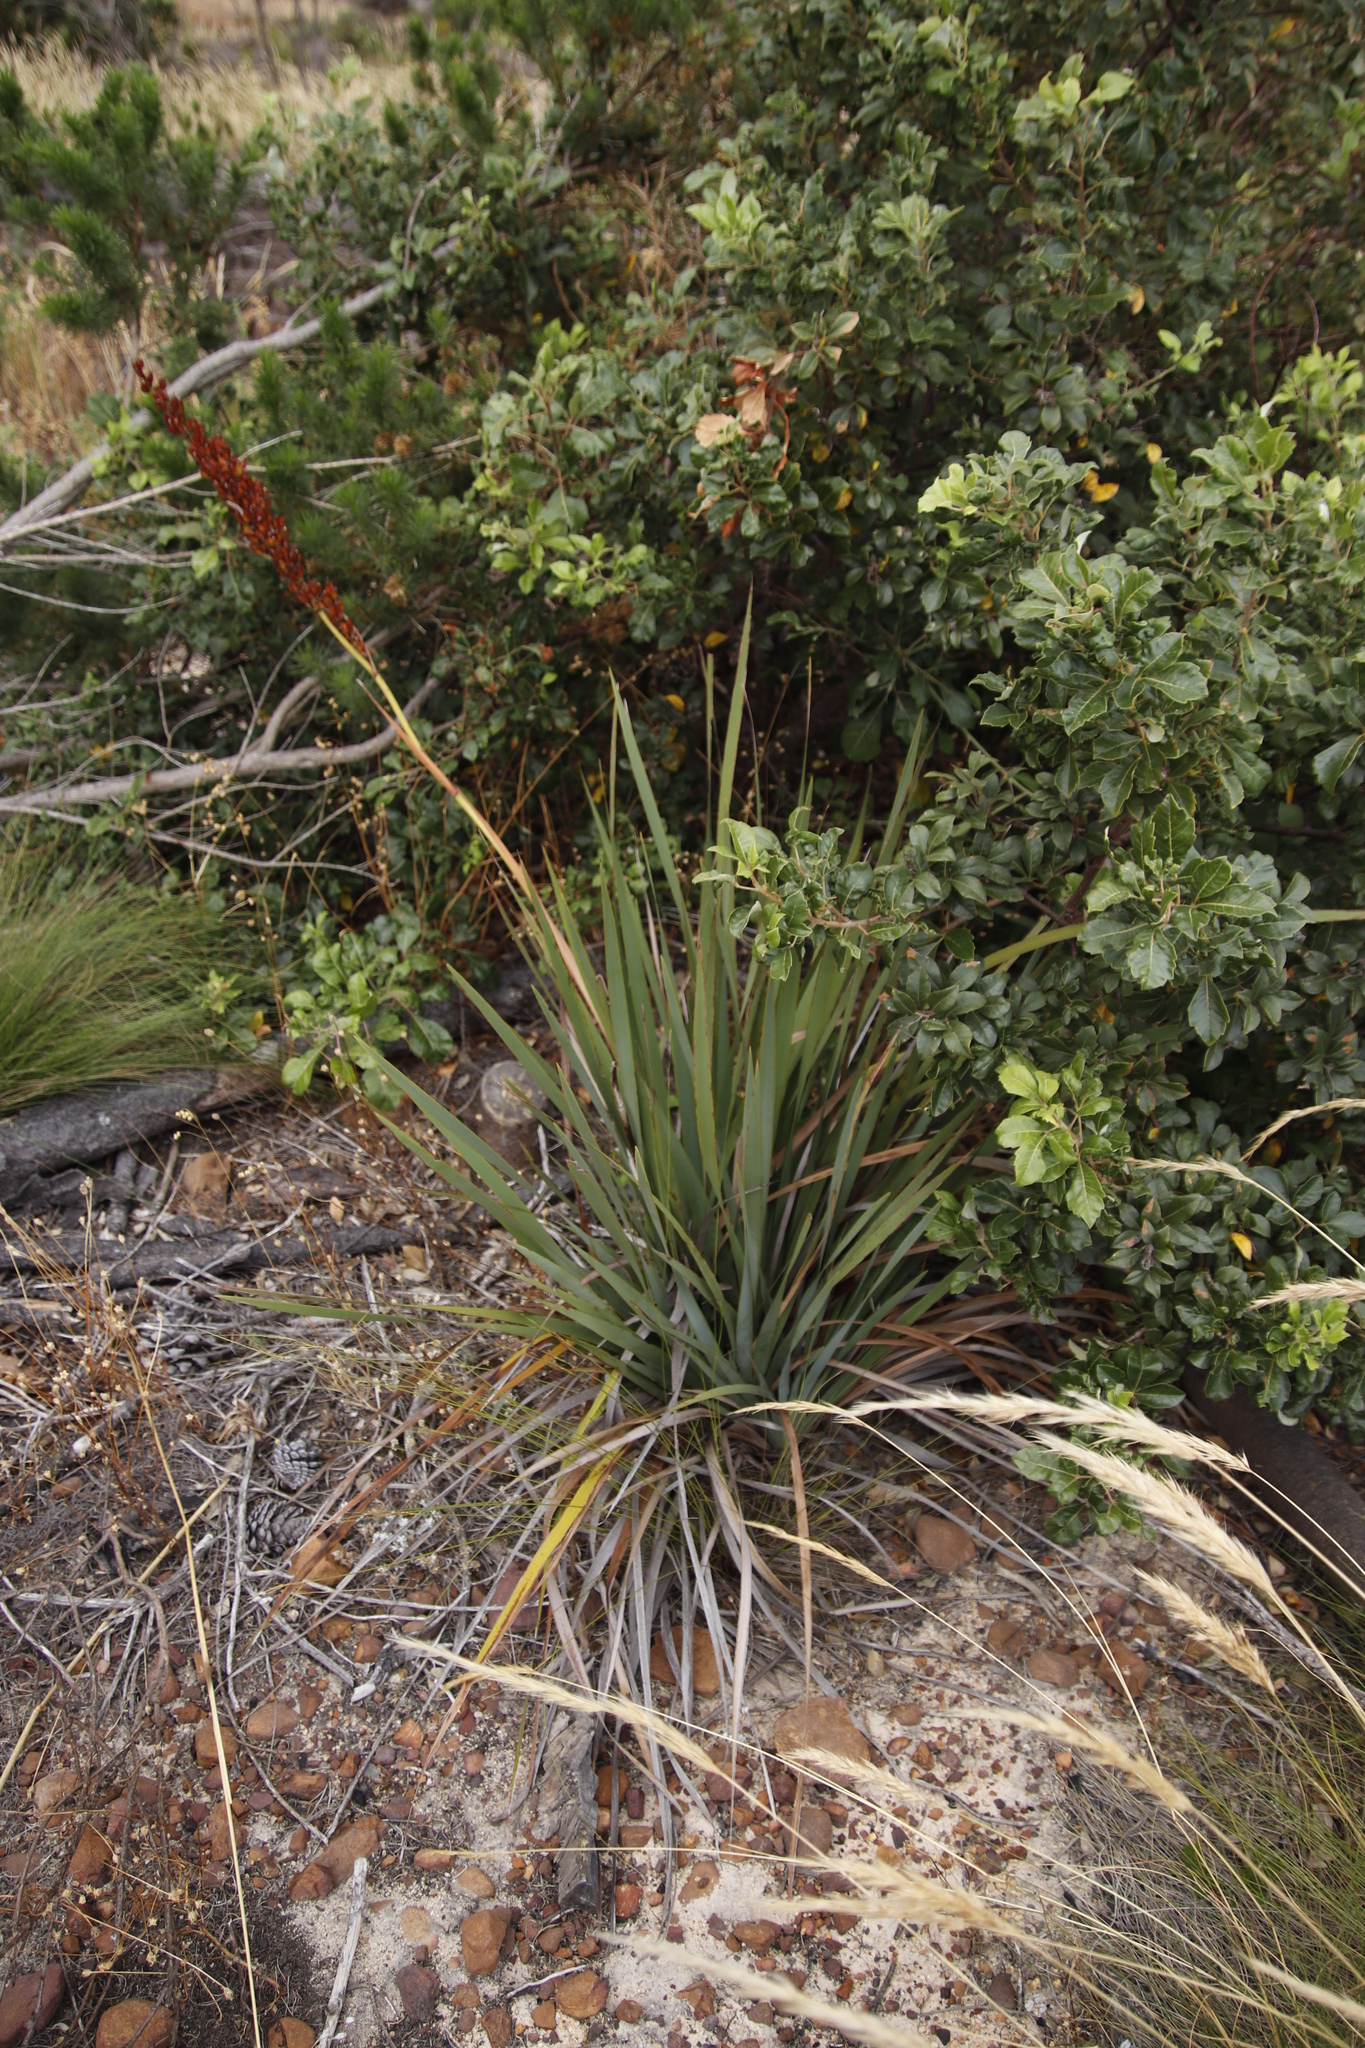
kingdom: Plantae
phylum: Tracheophyta
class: Liliopsida
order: Asparagales
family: Iridaceae
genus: Aristea
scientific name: Aristea capitata
